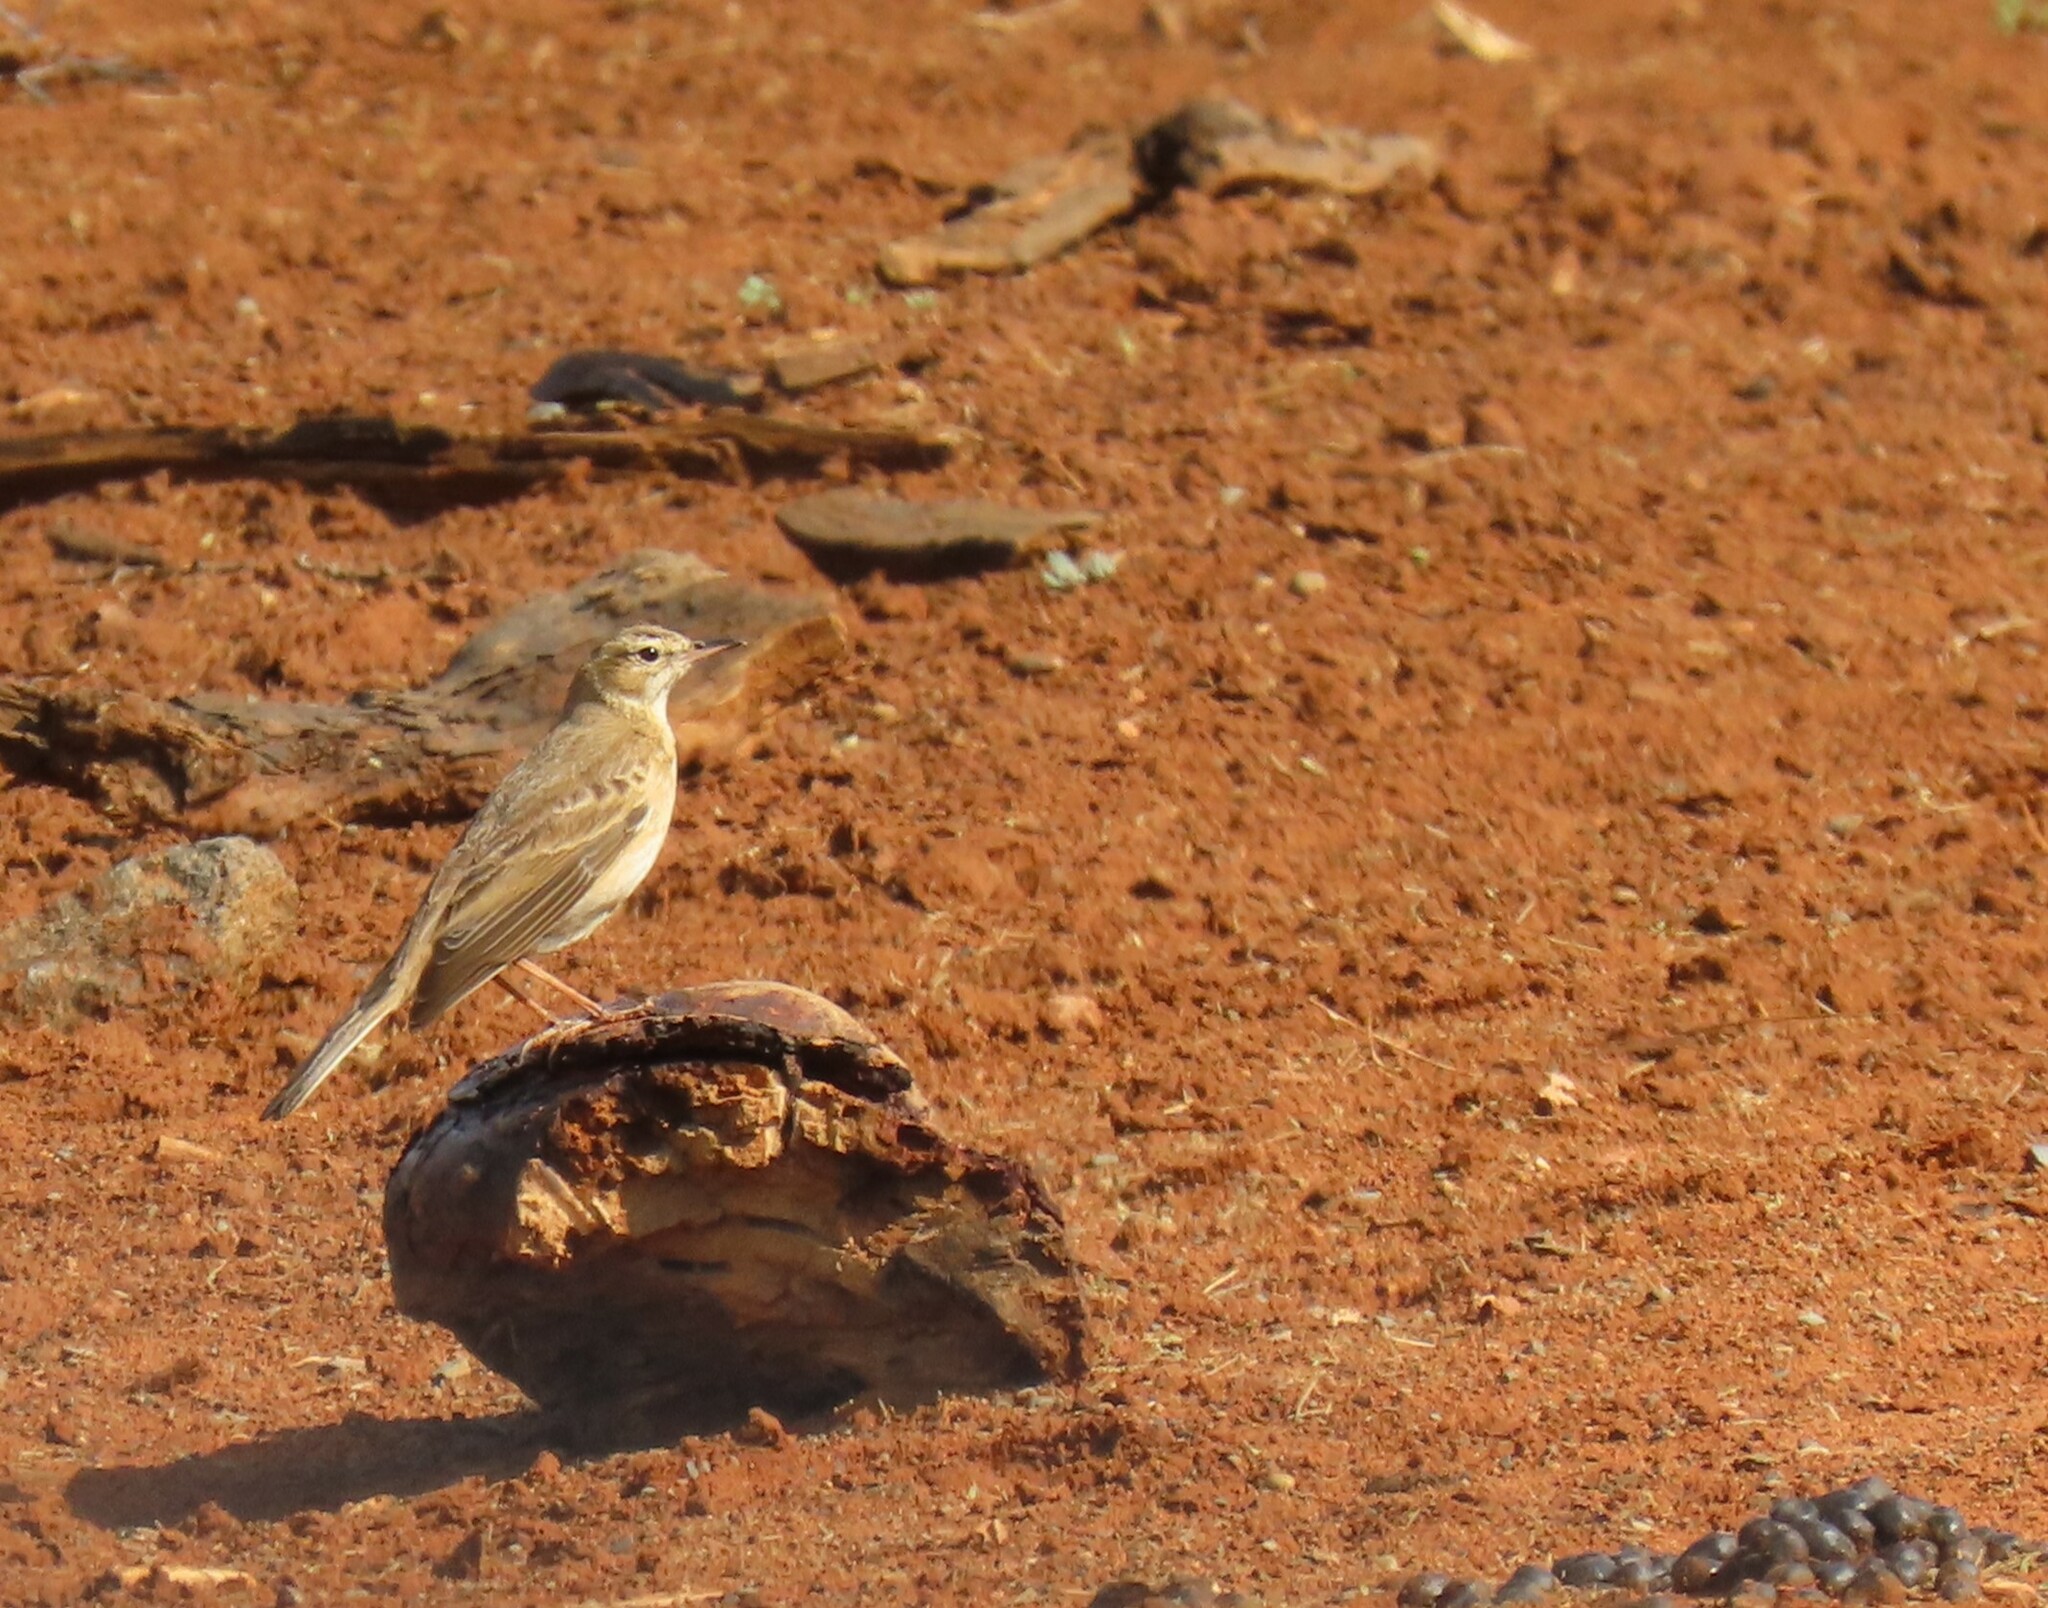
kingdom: Animalia
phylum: Chordata
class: Aves
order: Passeriformes
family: Motacillidae
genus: Anthus
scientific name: Anthus vaalensis
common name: Buffy pipit
